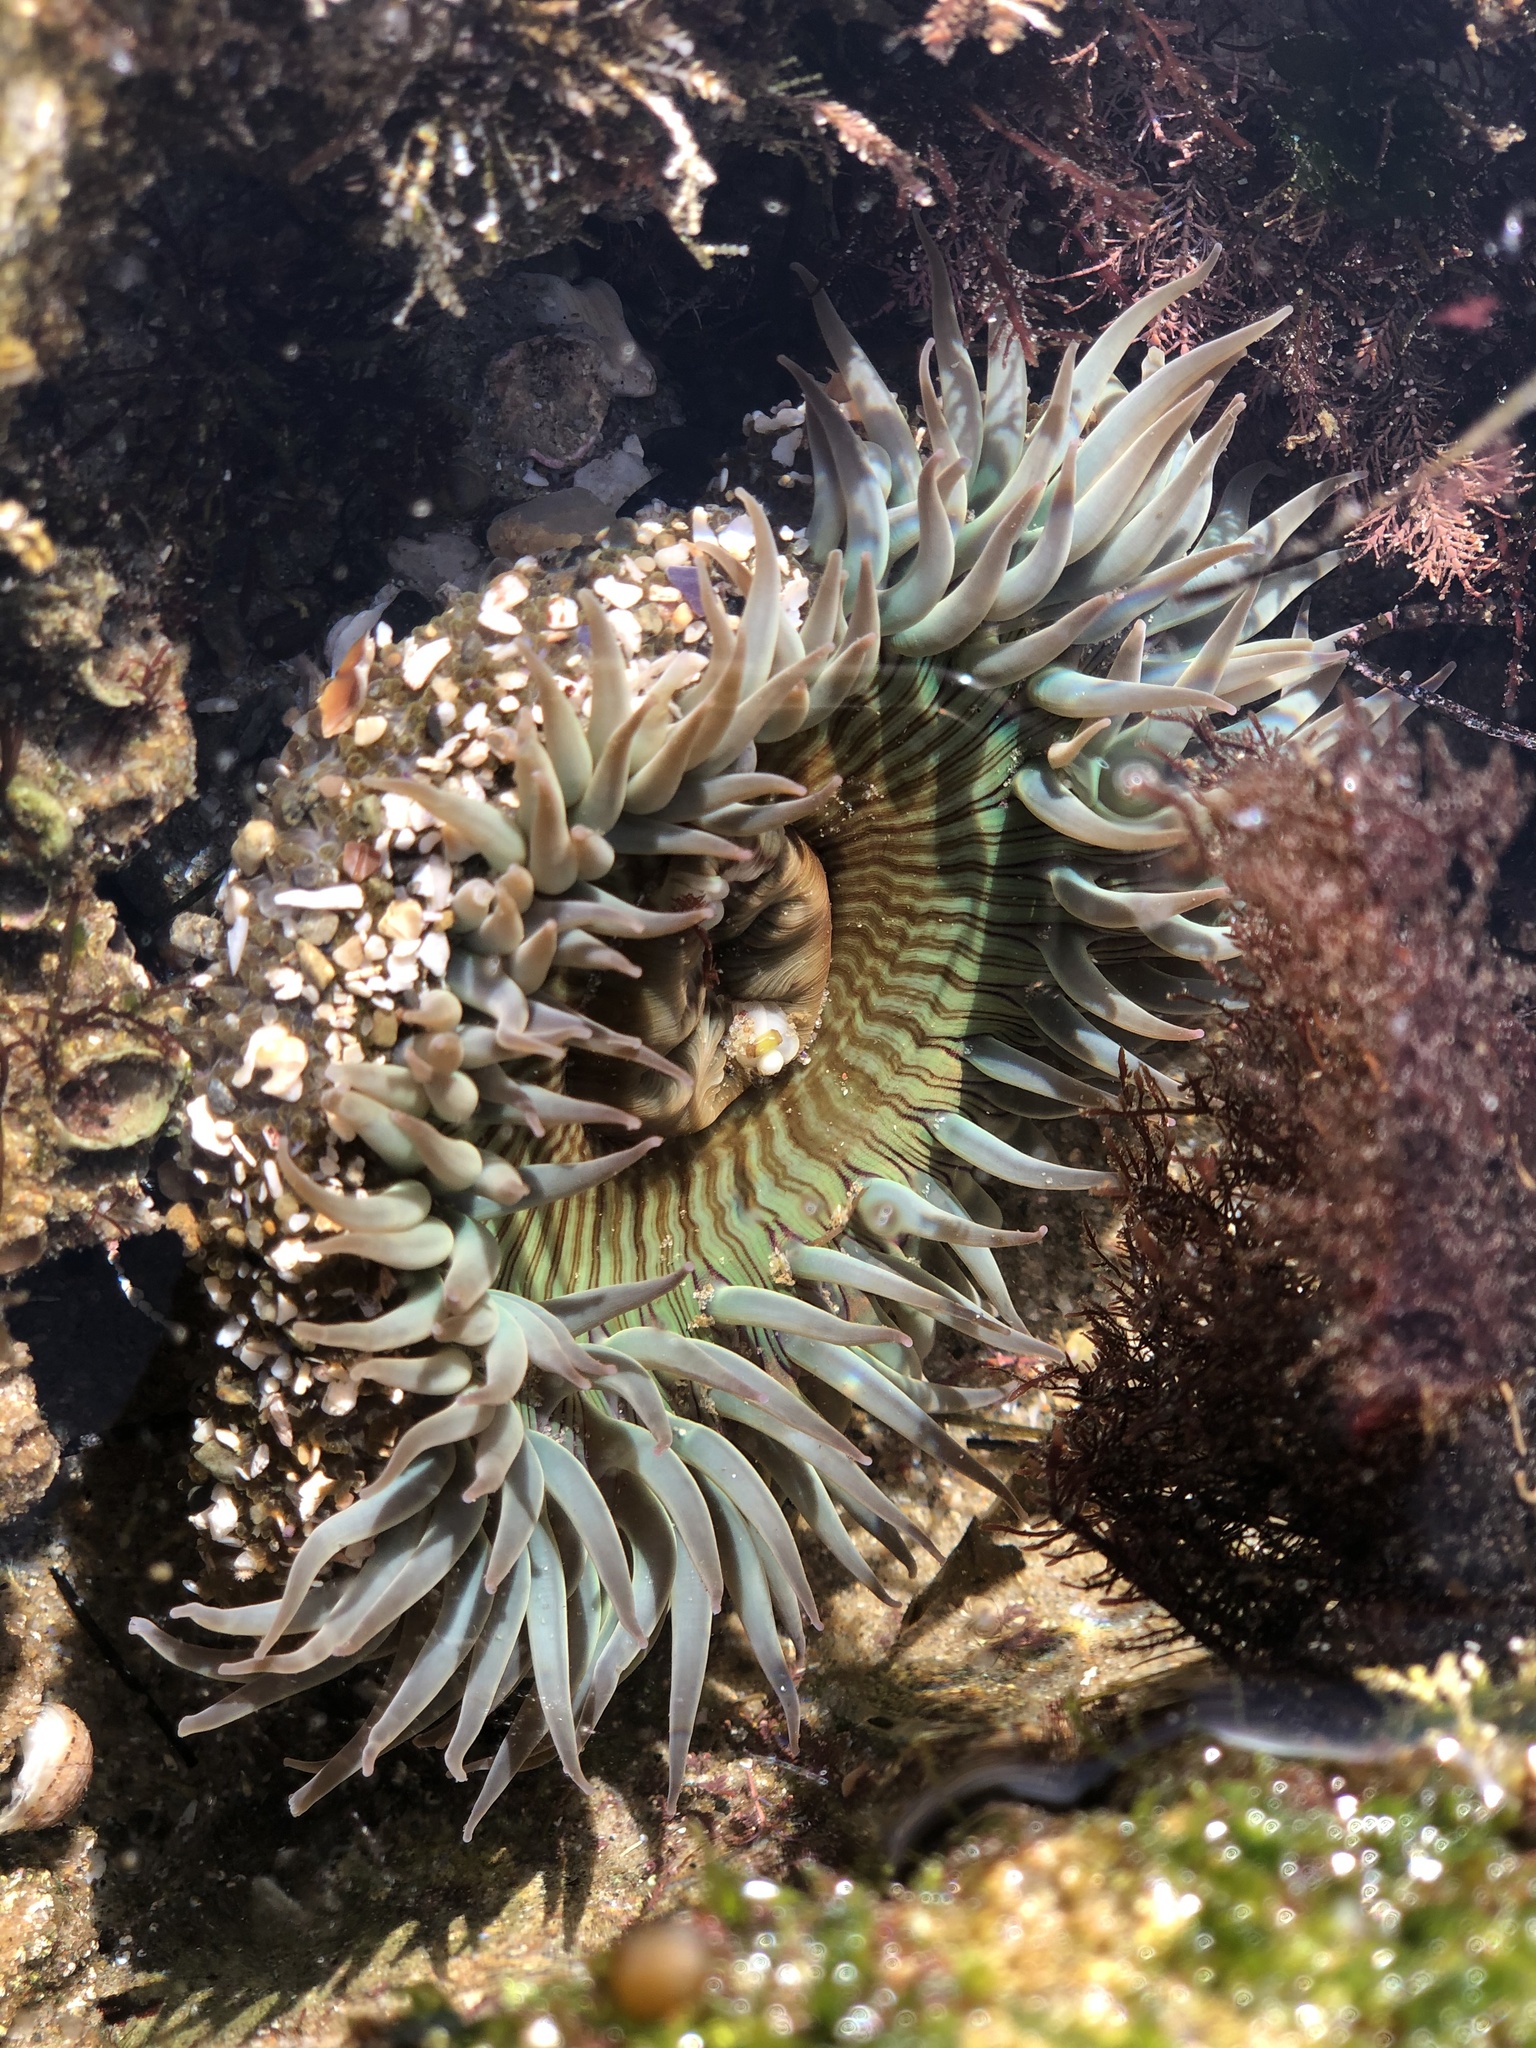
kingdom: Animalia
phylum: Cnidaria
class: Anthozoa
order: Actiniaria
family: Actiniidae
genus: Anthopleura
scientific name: Anthopleura sola
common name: Sun anemone
